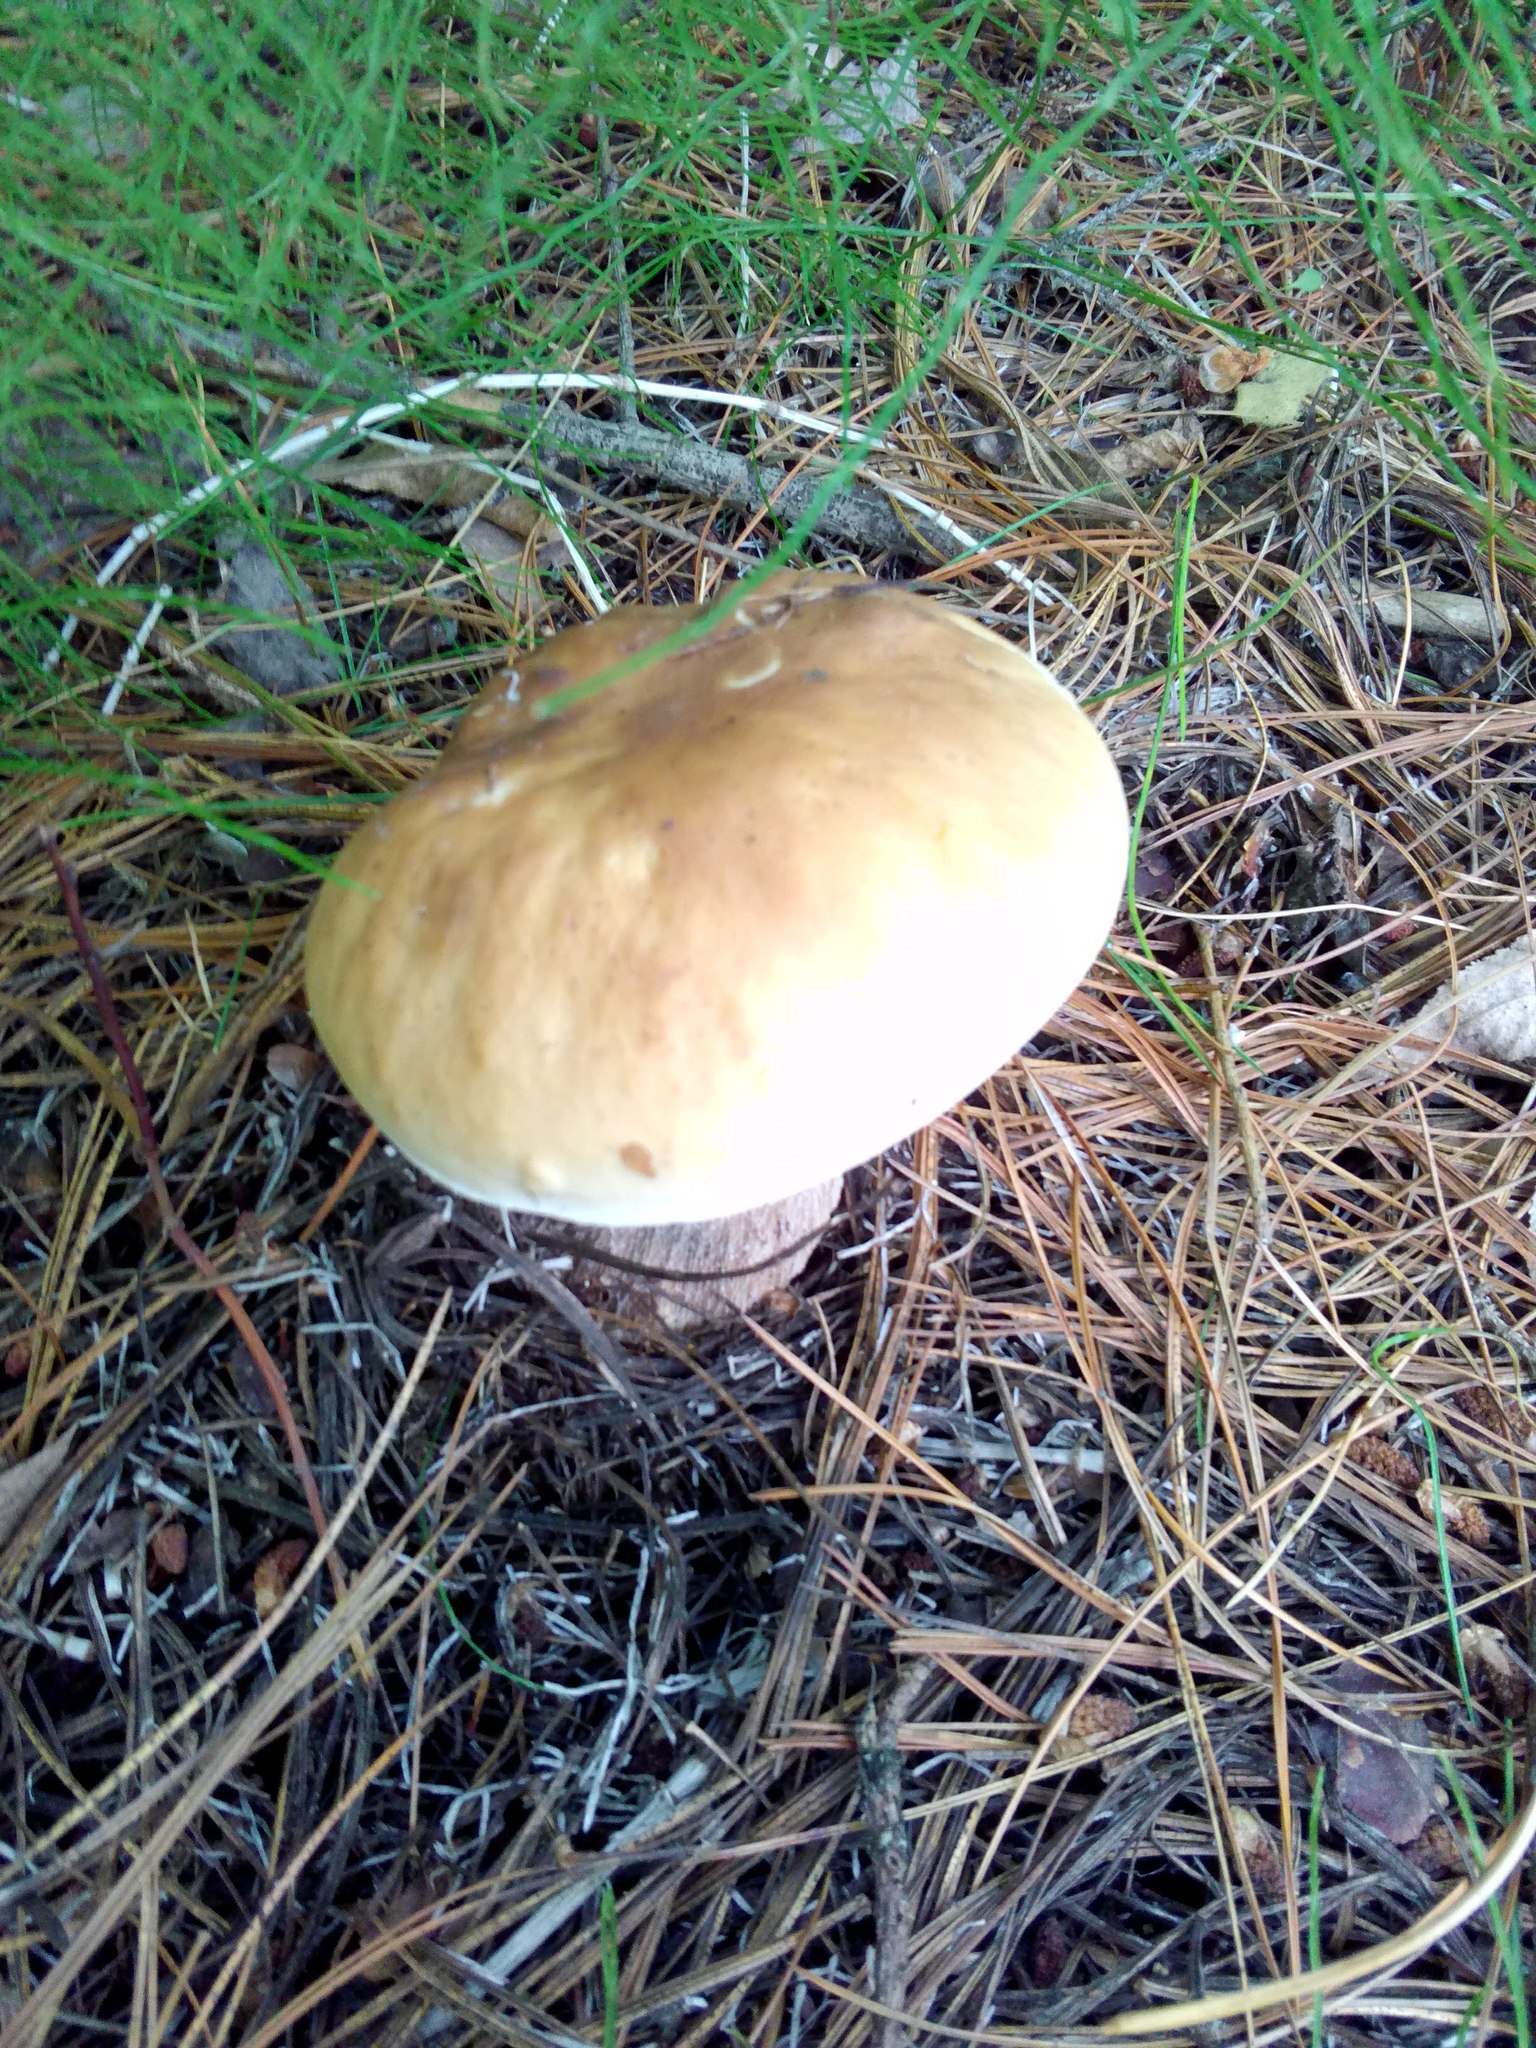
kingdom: Fungi
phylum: Basidiomycota
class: Agaricomycetes
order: Boletales
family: Boletaceae
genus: Boletus
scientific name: Boletus edulis
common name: Cep
